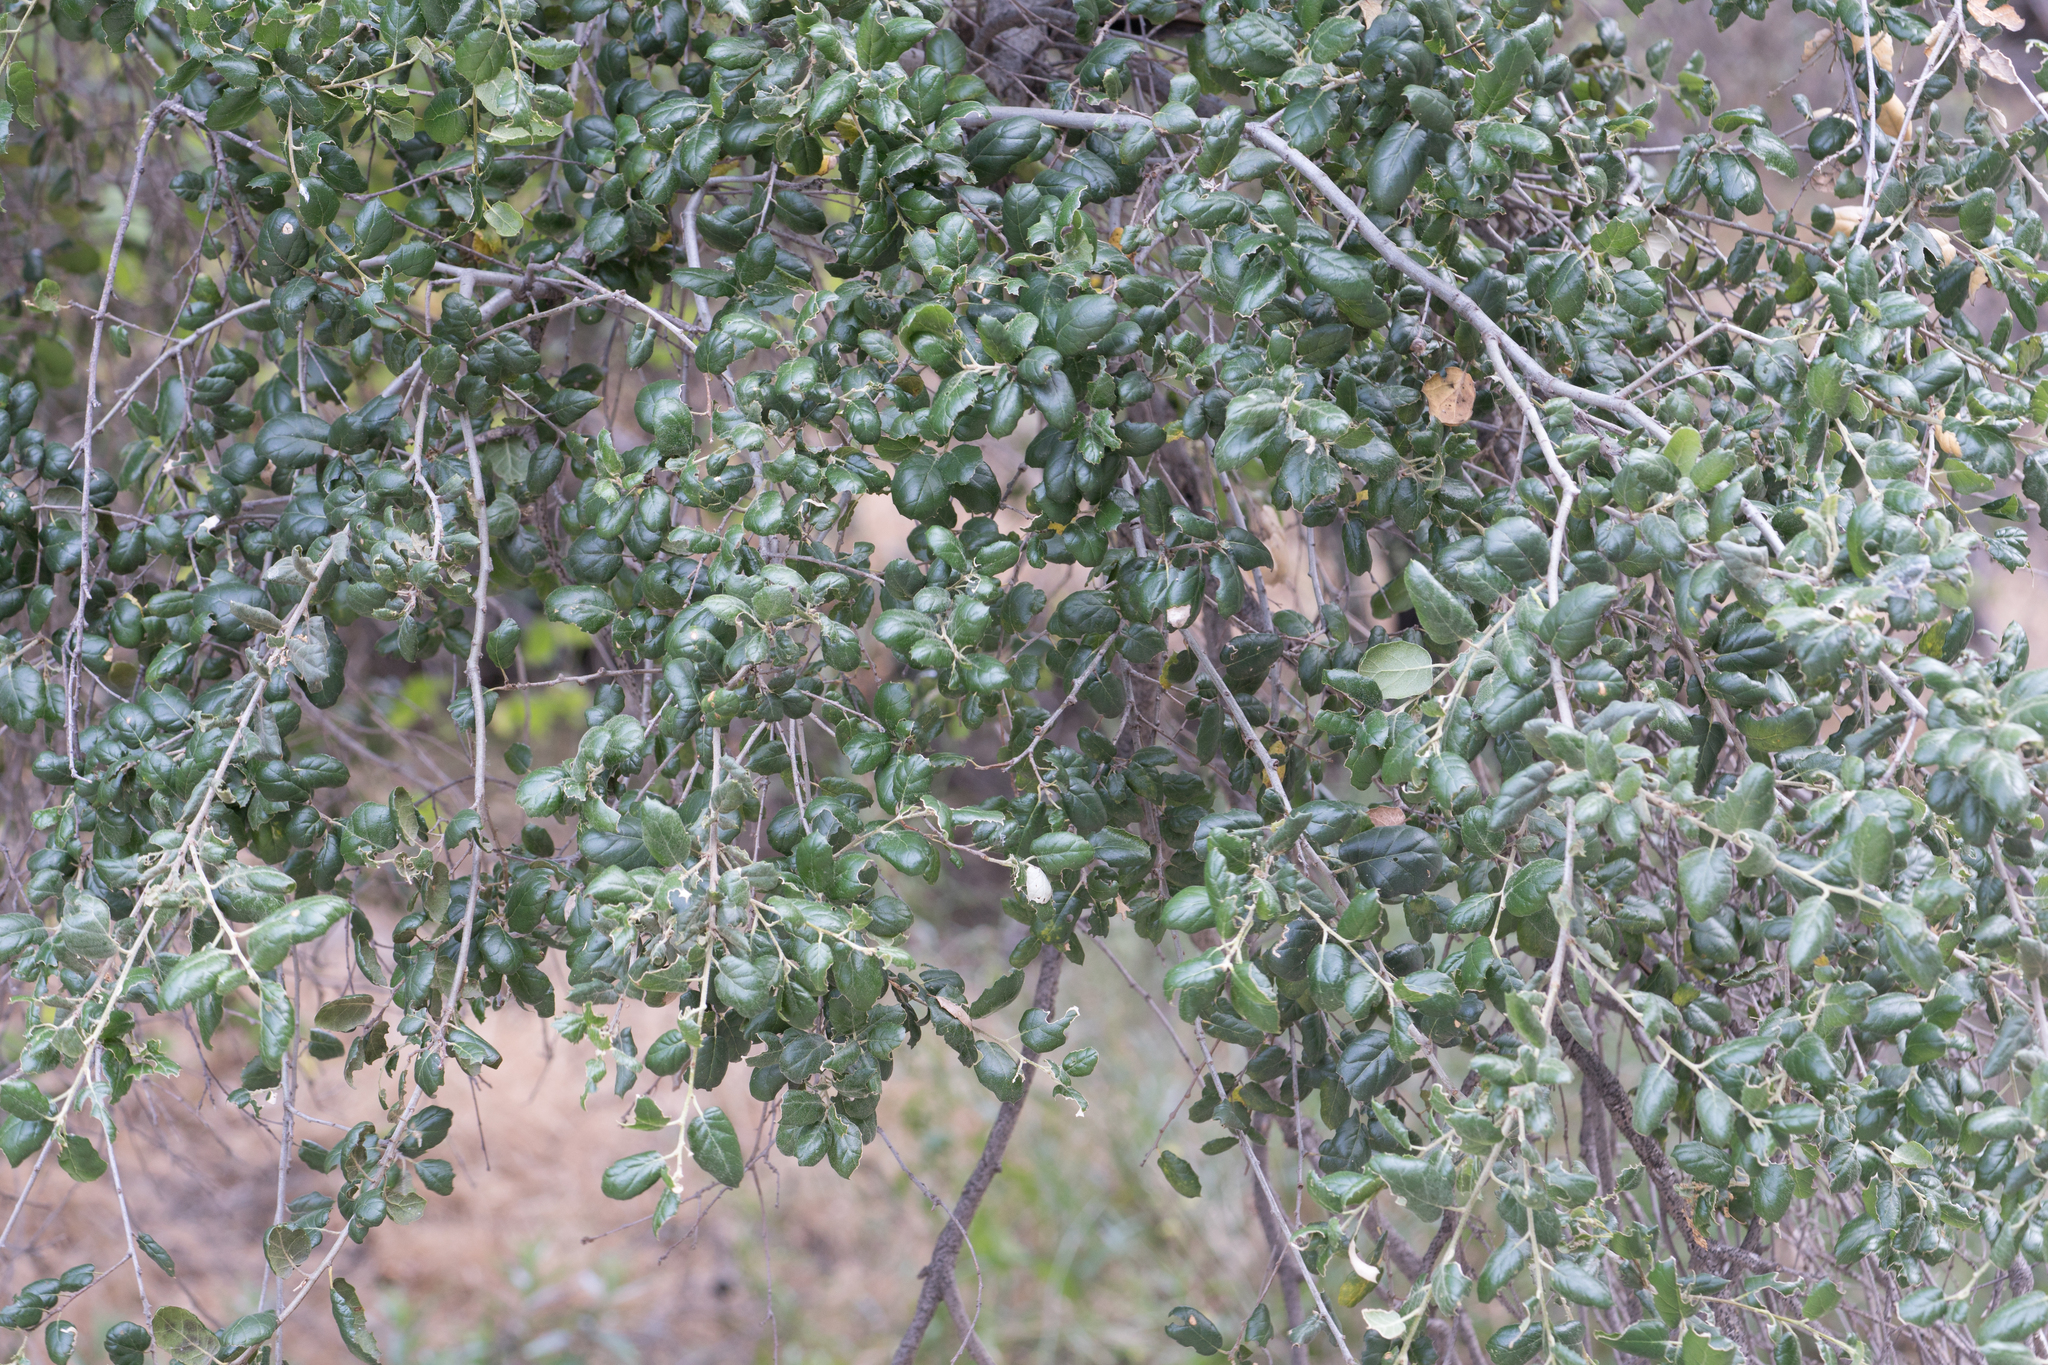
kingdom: Plantae
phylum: Tracheophyta
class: Magnoliopsida
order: Fagales
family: Fagaceae
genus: Quercus
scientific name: Quercus agrifolia
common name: California live oak
